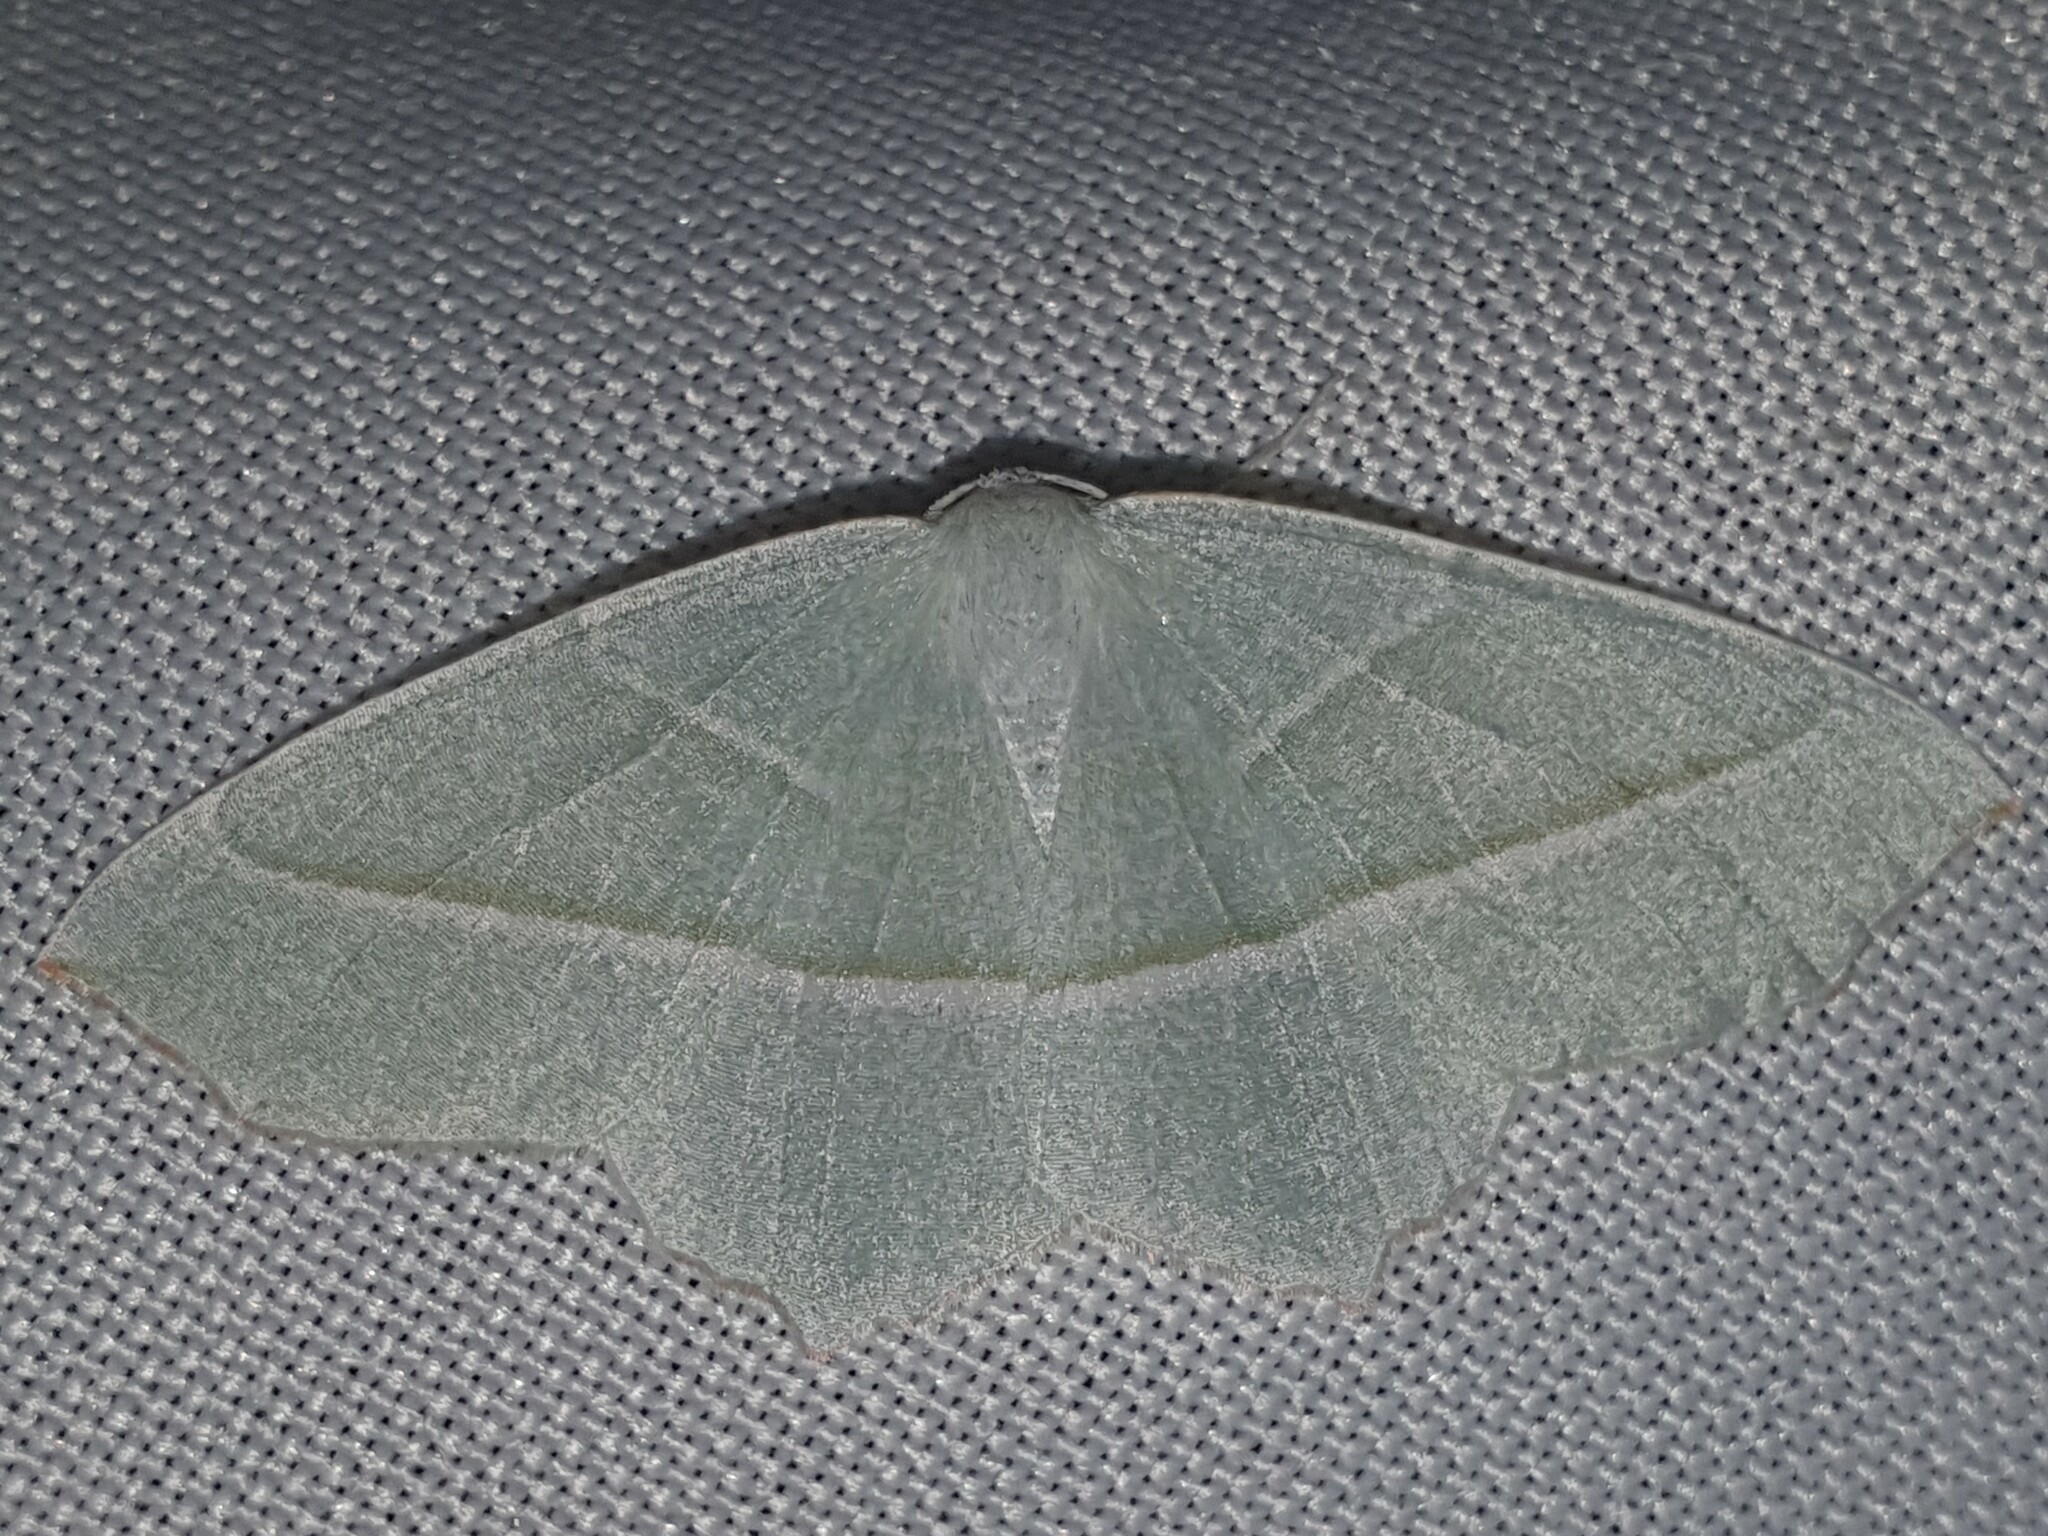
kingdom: Animalia
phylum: Arthropoda
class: Insecta
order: Lepidoptera
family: Geometridae
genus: Campaea
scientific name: Campaea margaritaria
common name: Light emerald
